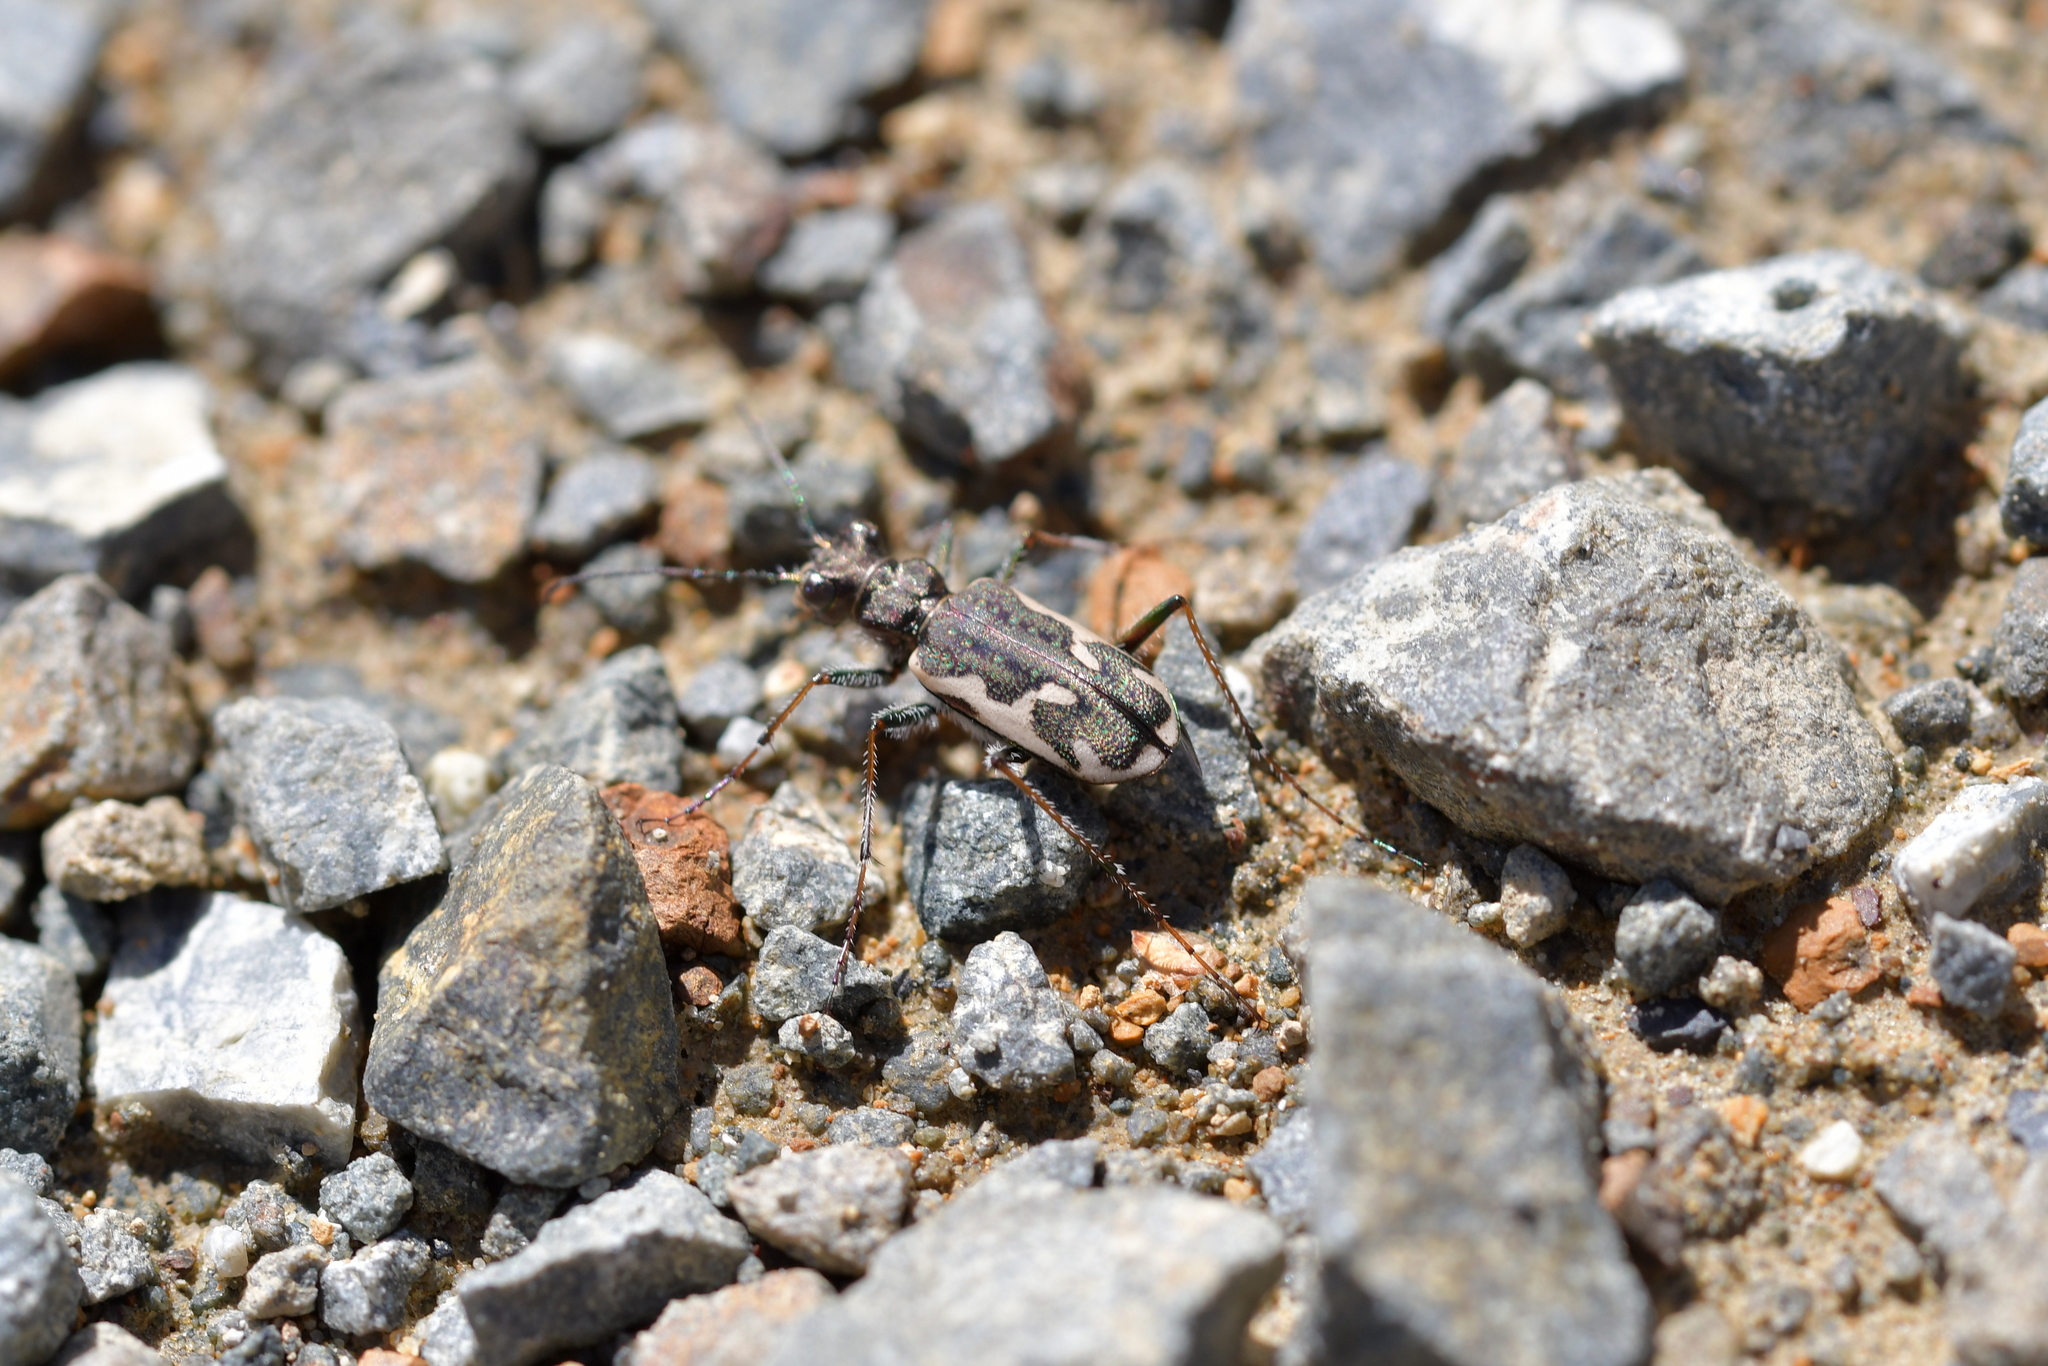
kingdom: Animalia
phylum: Arthropoda
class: Insecta
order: Coleoptera
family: Carabidae
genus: Neocicindela
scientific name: Neocicindela tuberculata
